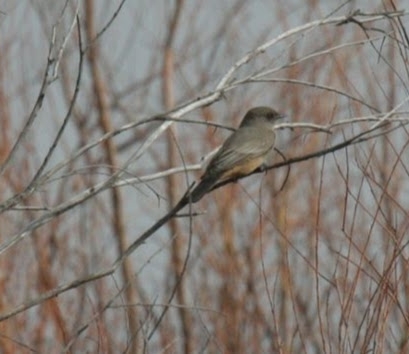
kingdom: Animalia
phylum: Chordata
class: Aves
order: Passeriformes
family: Tyrannidae
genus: Sayornis
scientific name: Sayornis saya
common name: Say's phoebe
